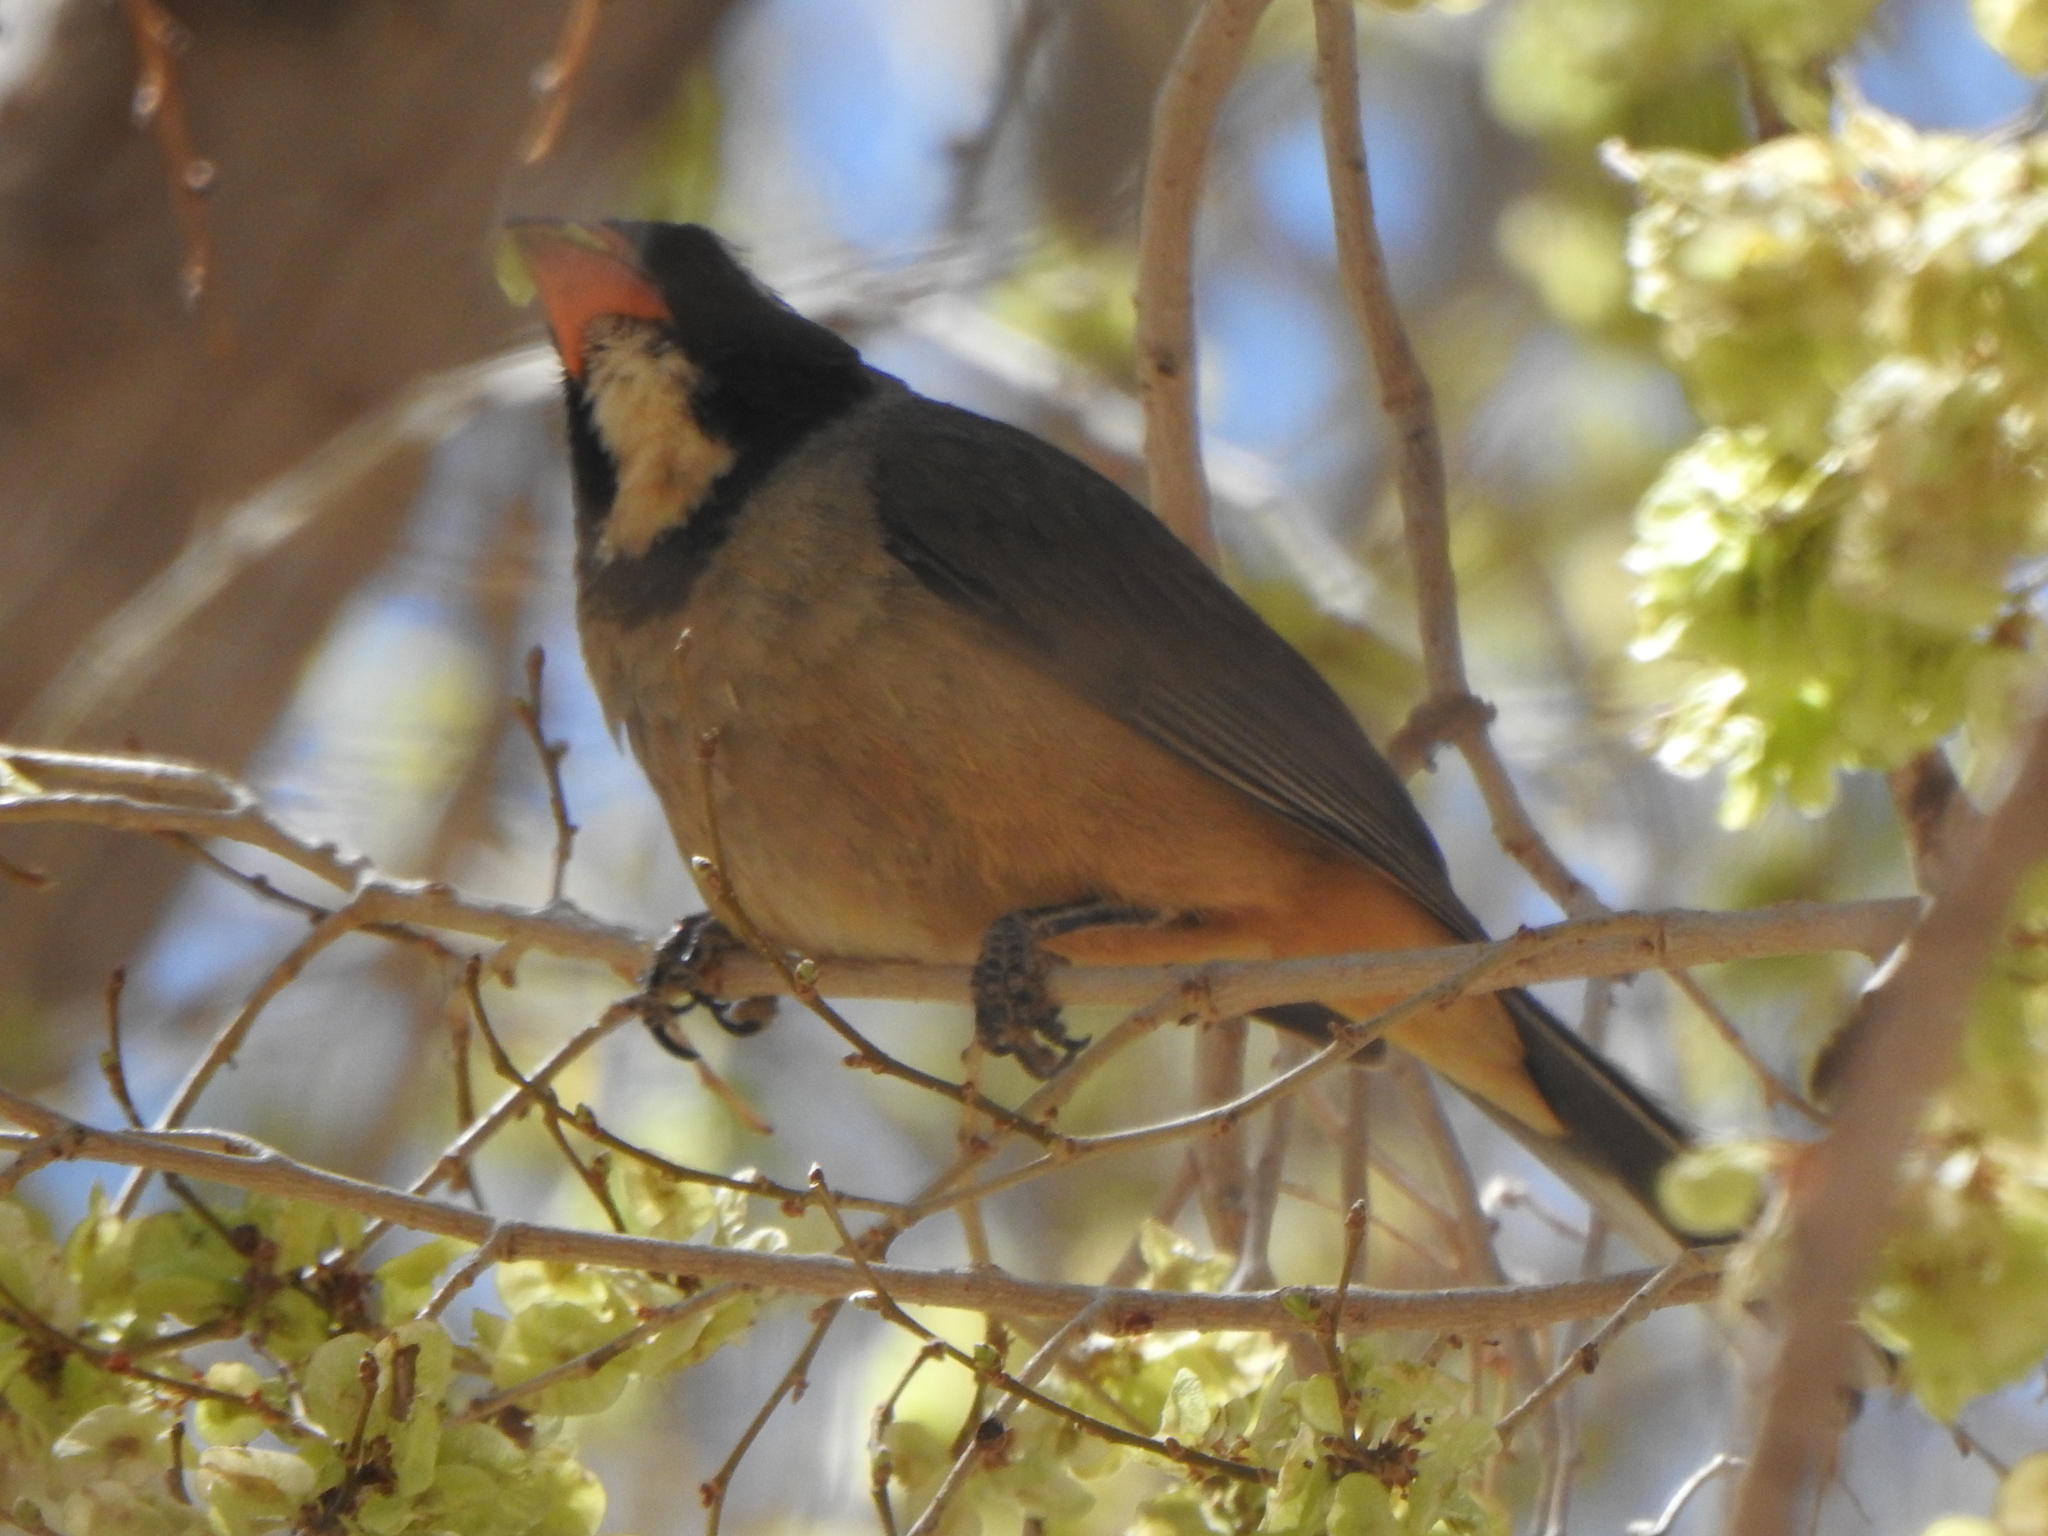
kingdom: Animalia
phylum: Chordata
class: Aves
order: Passeriformes
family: Thraupidae
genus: Saltator
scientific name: Saltator aurantiirostris
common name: Golden-billed saltator
